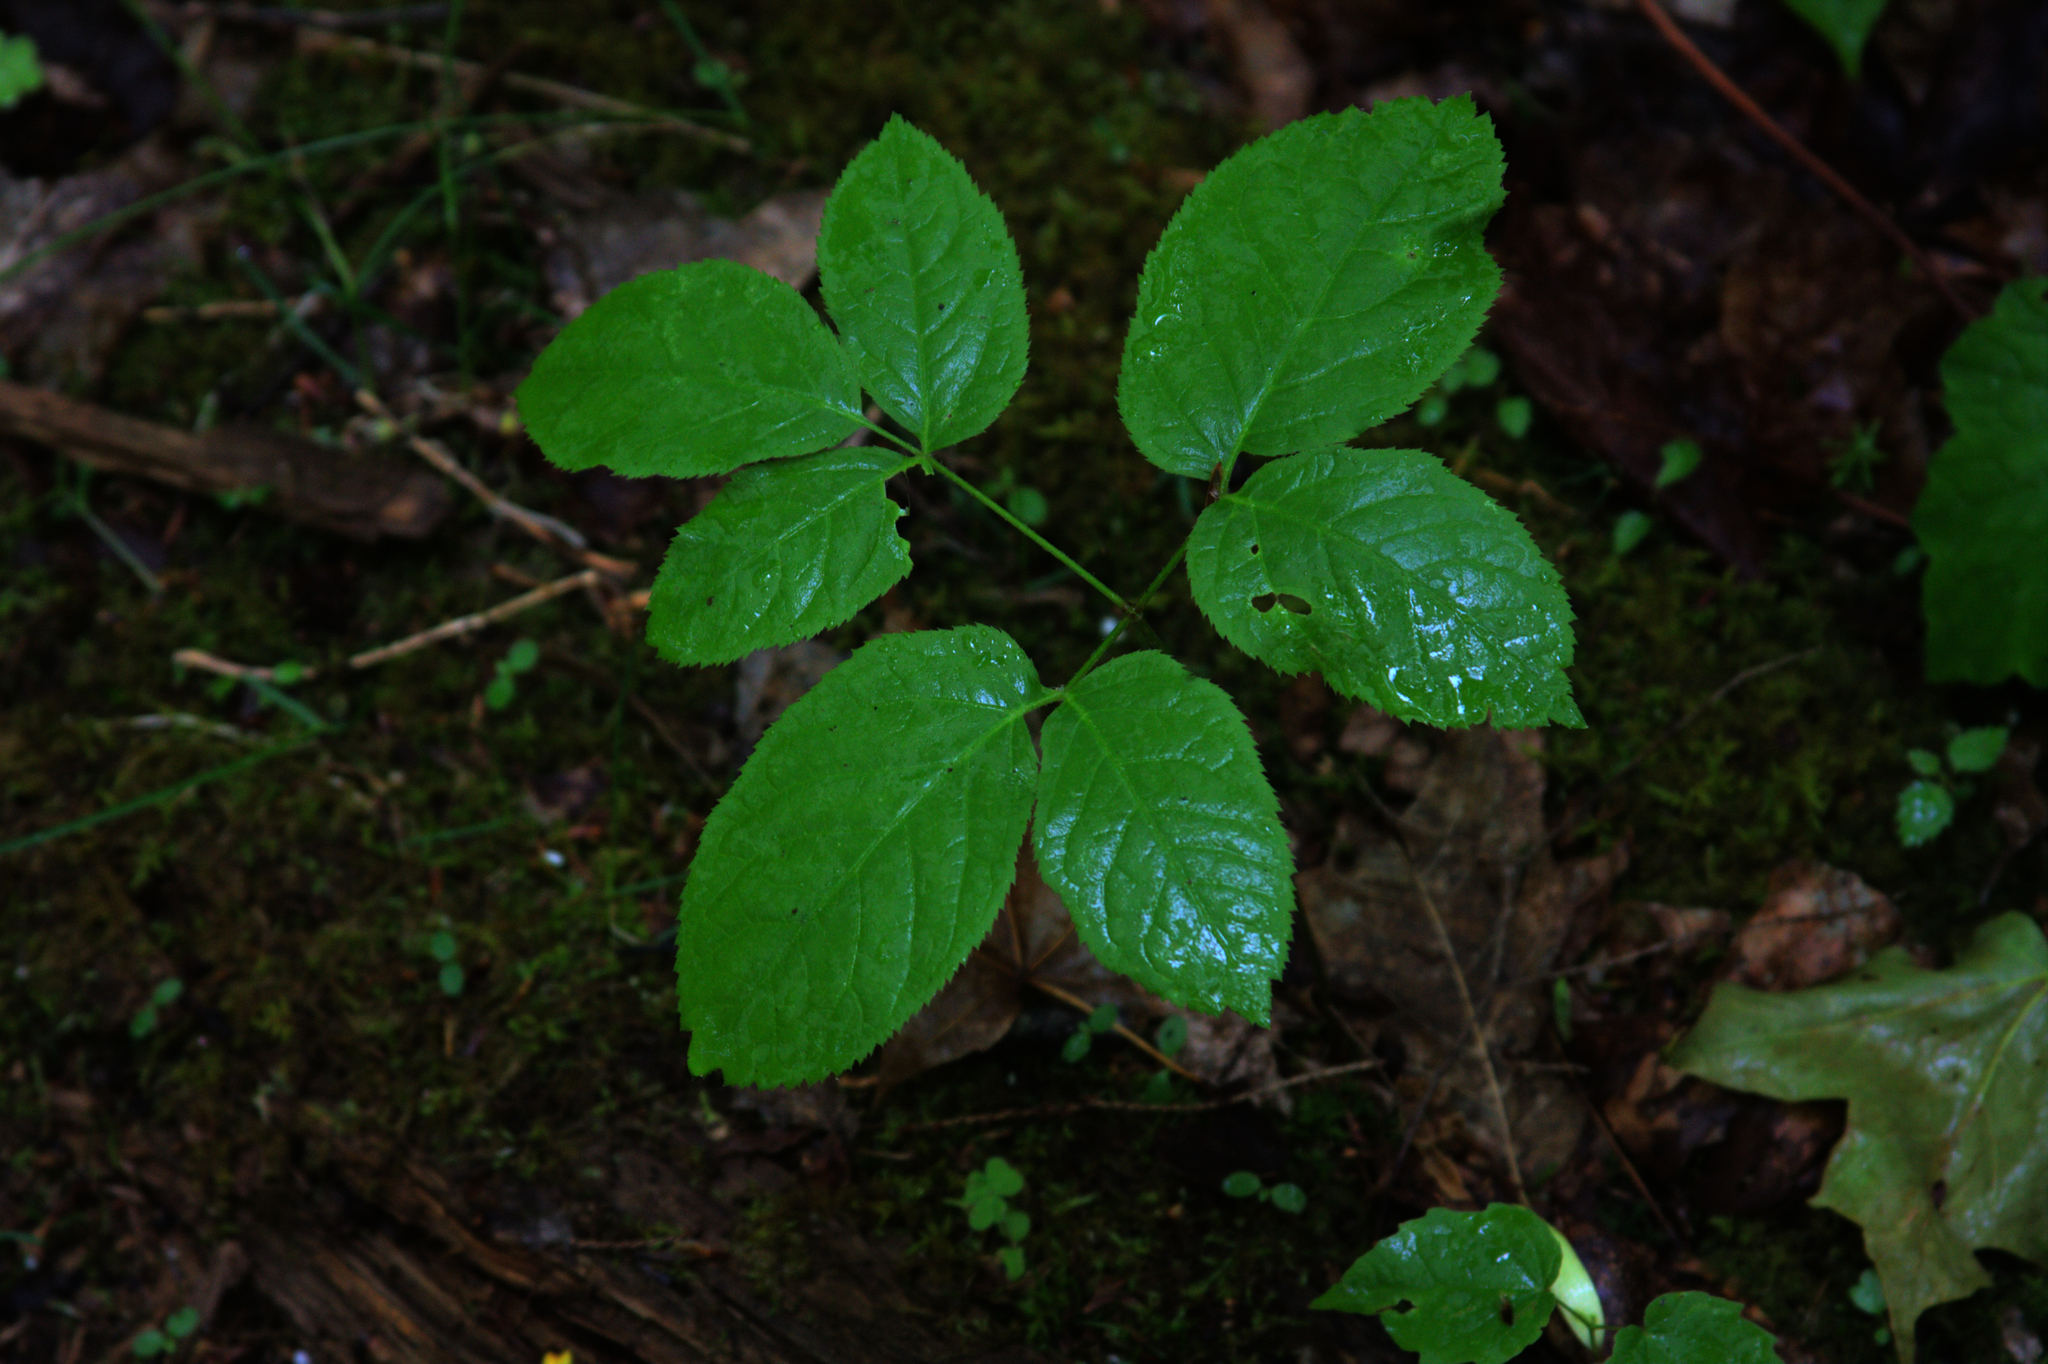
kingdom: Plantae
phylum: Tracheophyta
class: Magnoliopsida
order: Apiales
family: Araliaceae
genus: Aralia
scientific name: Aralia nudicaulis
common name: Wild sarsaparilla
